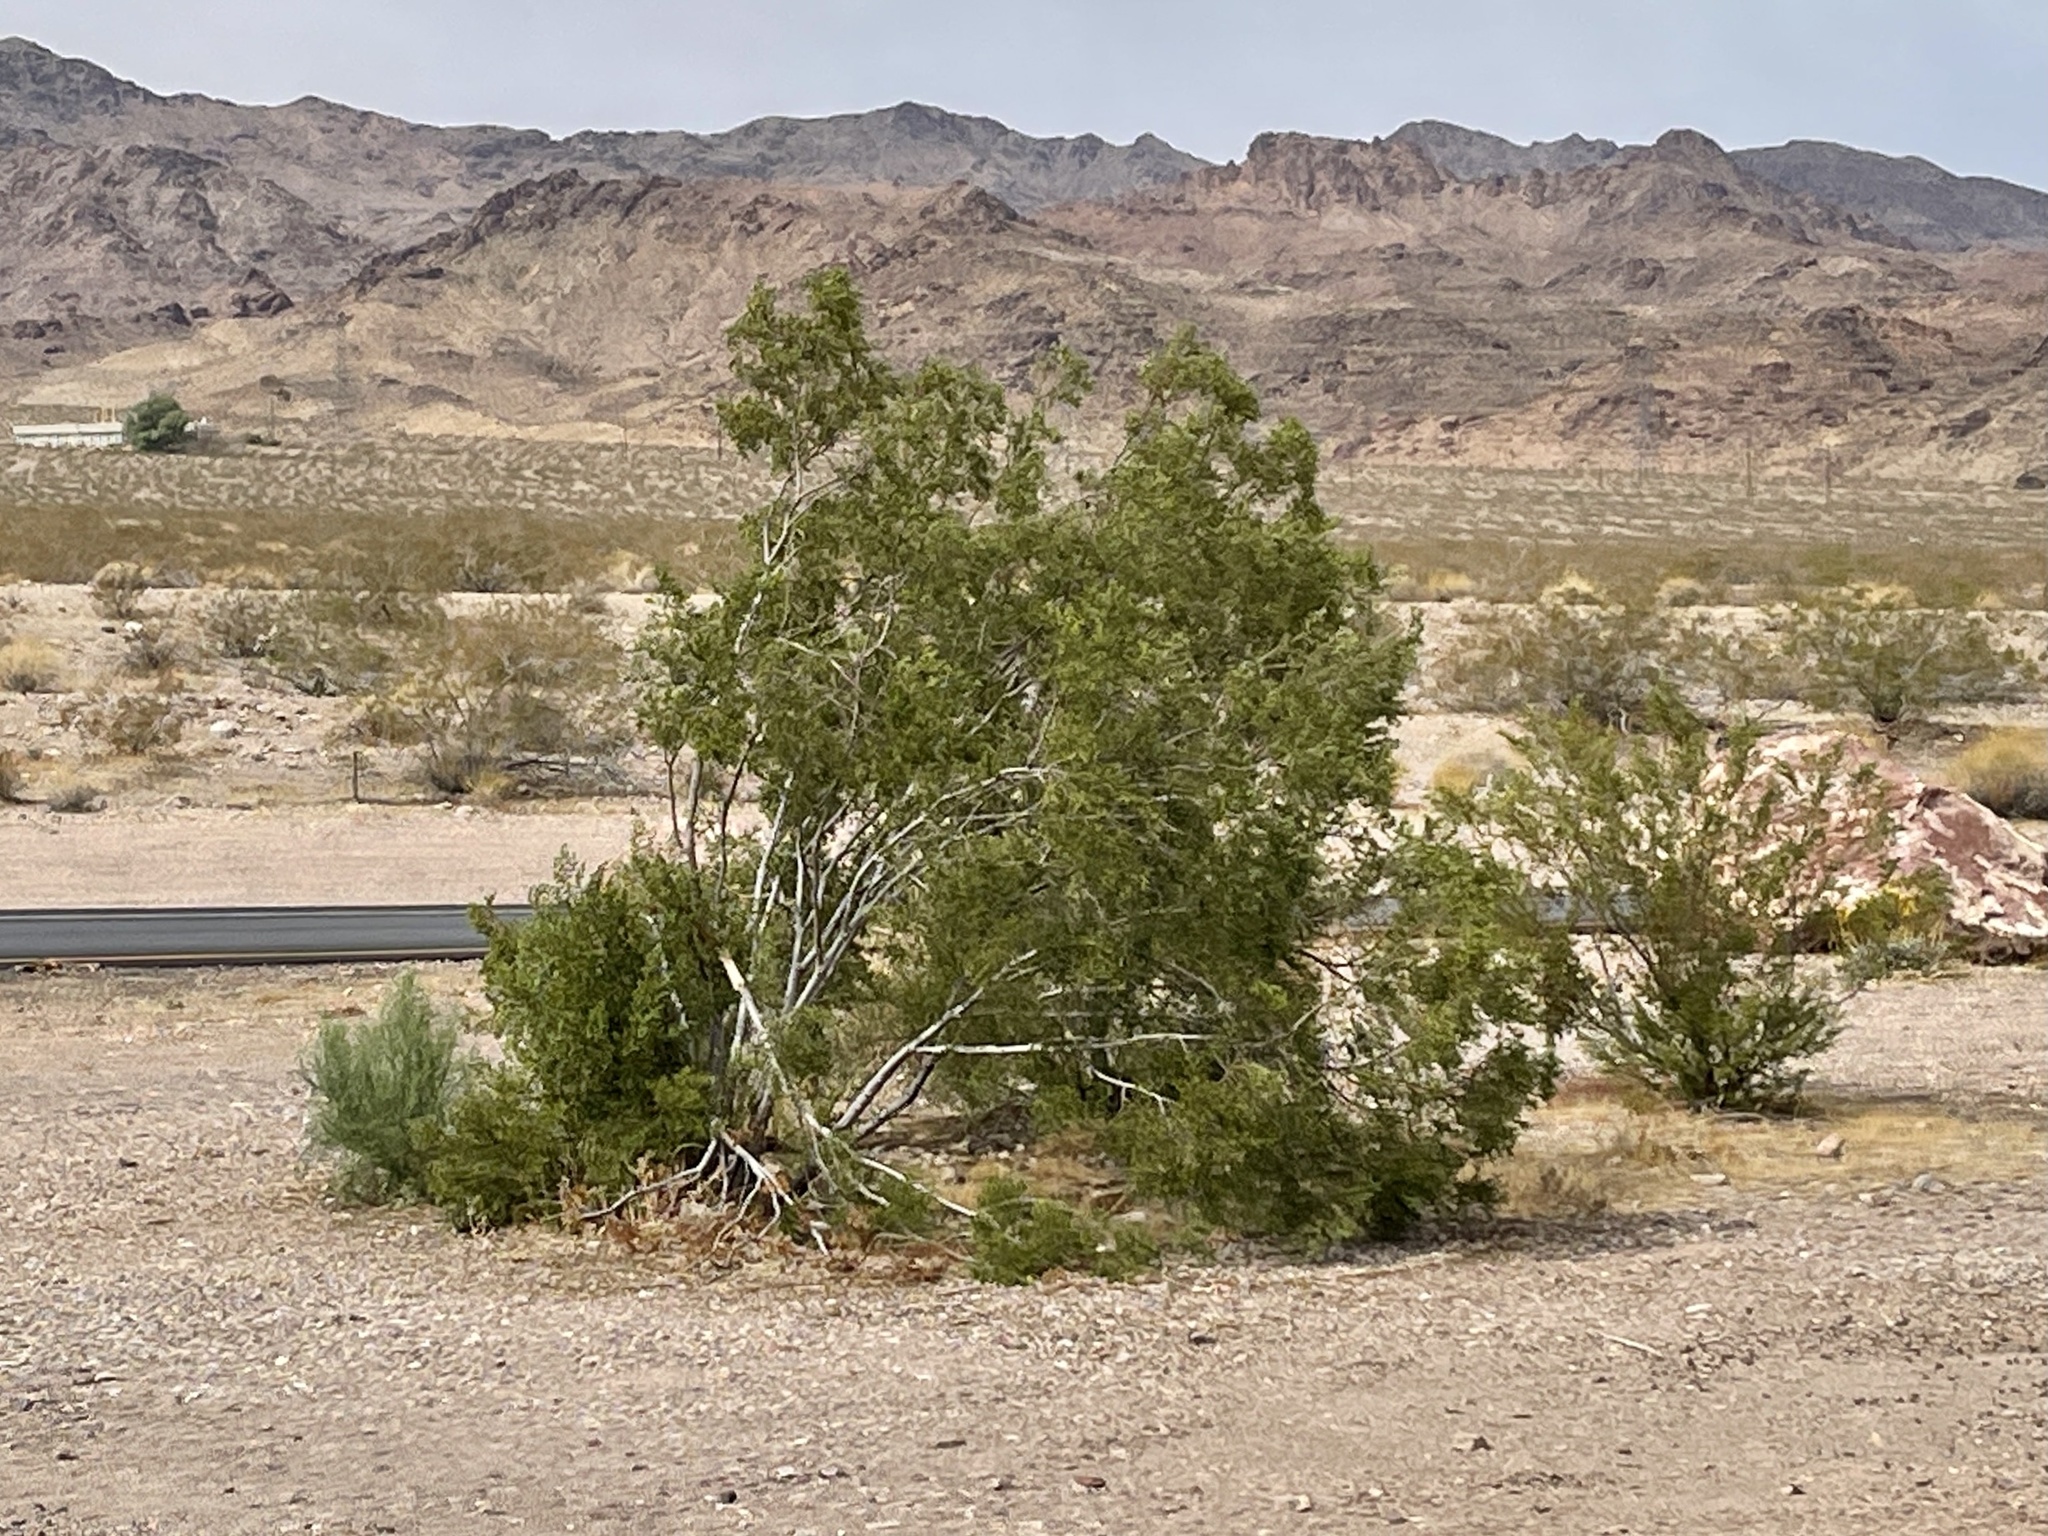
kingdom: Plantae
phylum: Tracheophyta
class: Magnoliopsida
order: Zygophyllales
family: Zygophyllaceae
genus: Larrea
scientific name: Larrea tridentata
